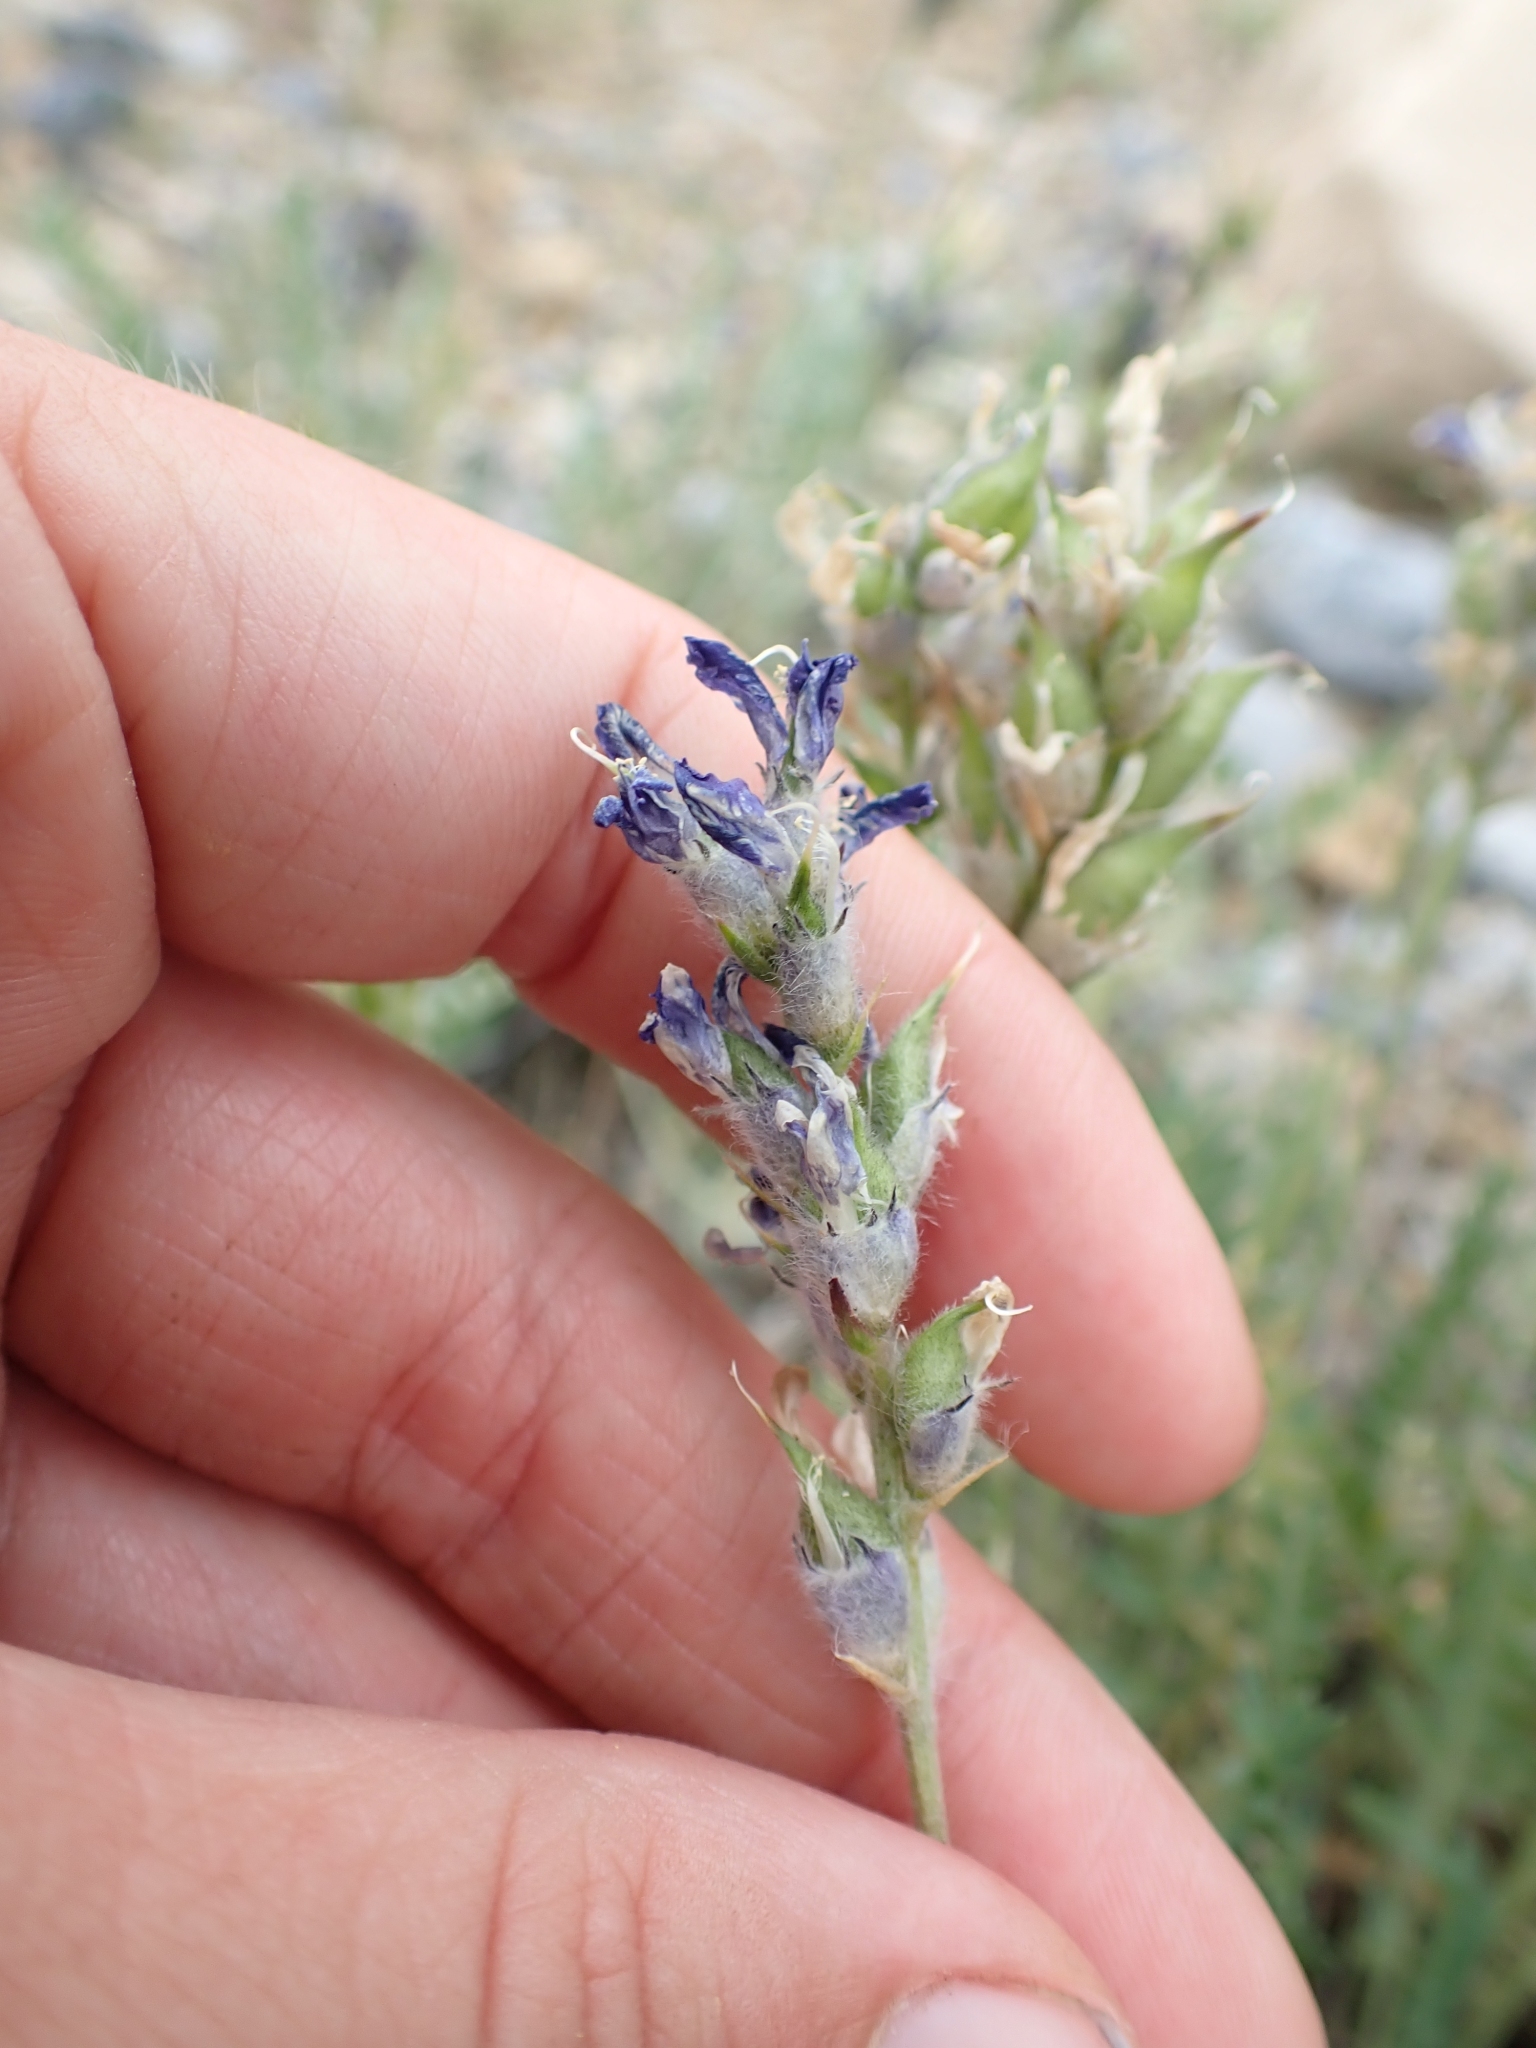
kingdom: Plantae
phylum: Tracheophyta
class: Magnoliopsida
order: Fabales
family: Fabaceae
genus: Oxytropis
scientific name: Oxytropis jordalii
